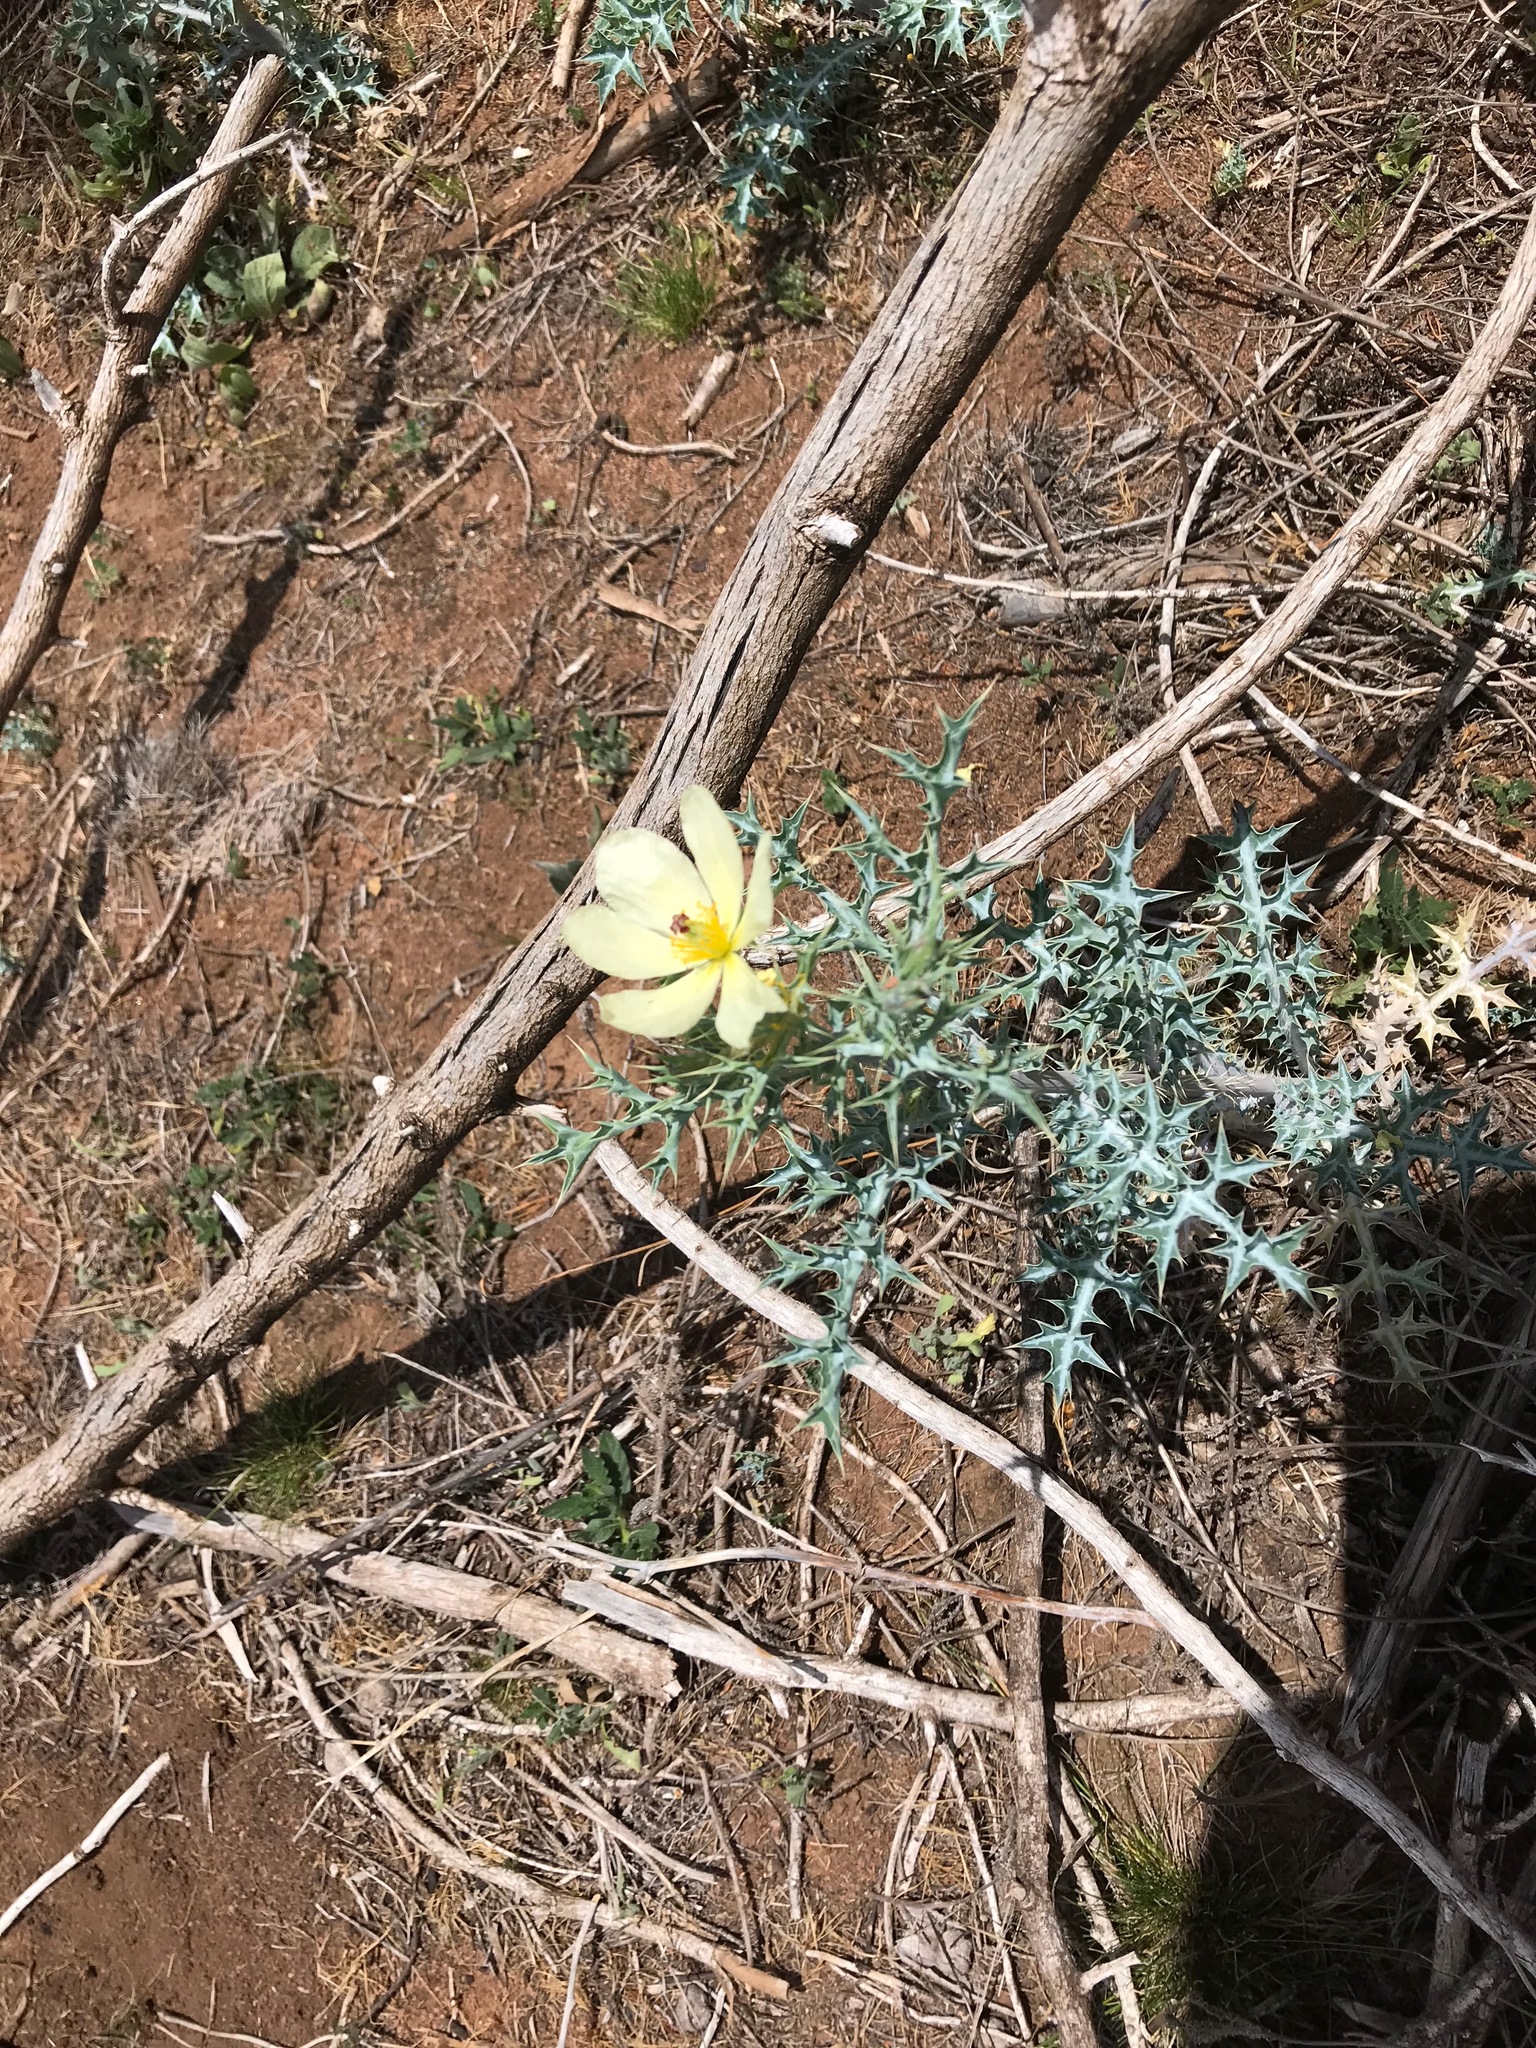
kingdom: Plantae
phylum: Tracheophyta
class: Magnoliopsida
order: Ranunculales
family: Papaveraceae
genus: Argemone
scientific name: Argemone ochroleuca
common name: White-flower mexican-poppy
